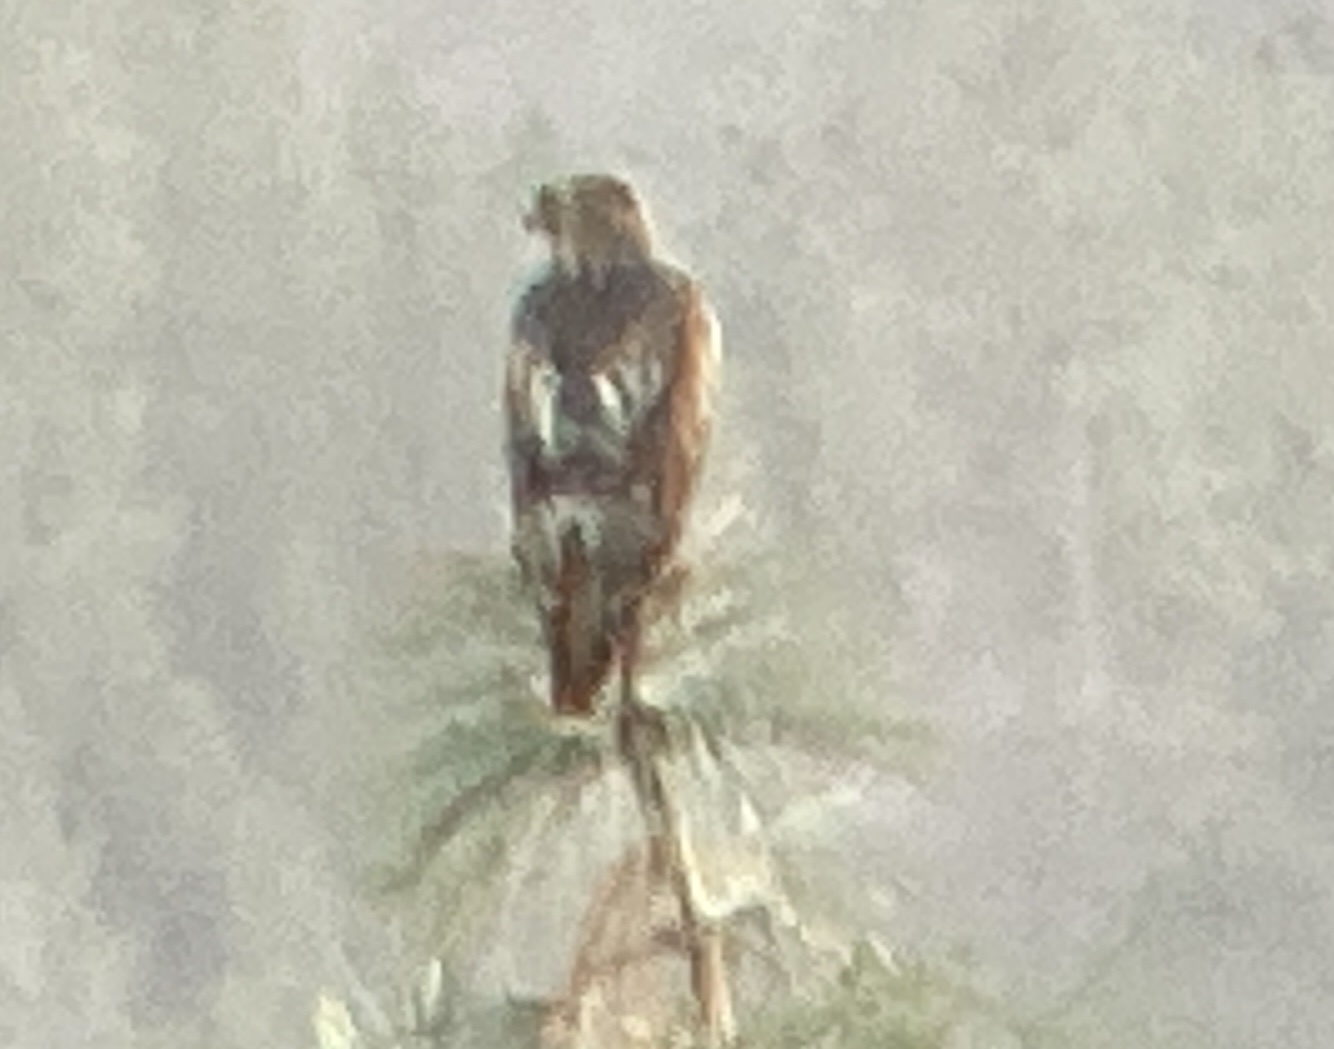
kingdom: Animalia
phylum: Chordata
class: Aves
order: Accipitriformes
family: Accipitridae
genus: Buteo
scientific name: Buteo jamaicensis
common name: Red-tailed hawk
